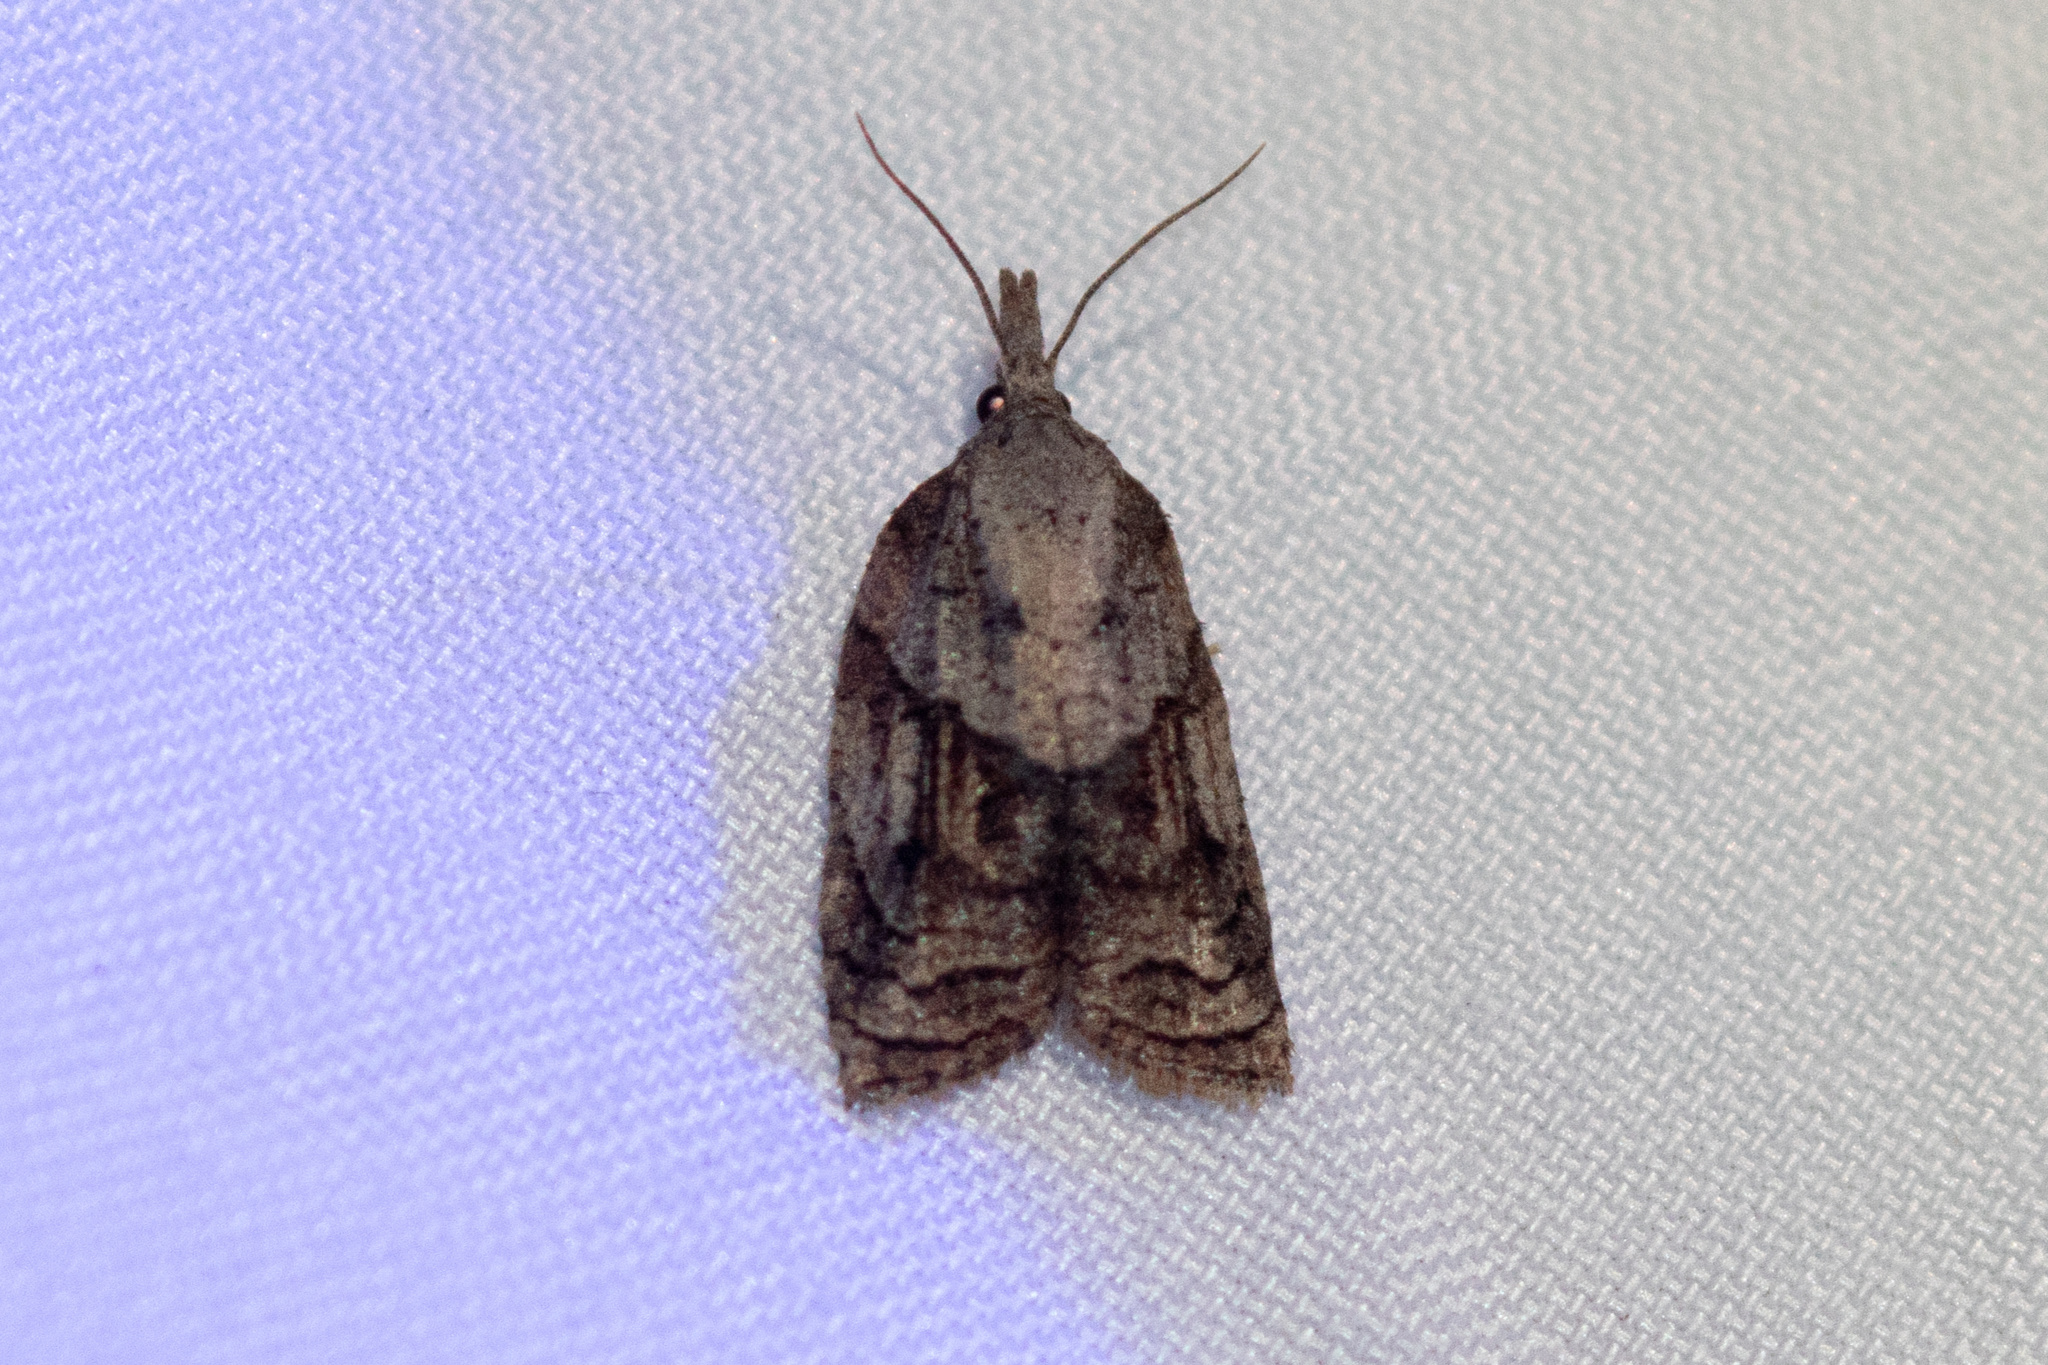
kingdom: Animalia
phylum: Arthropoda
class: Insecta
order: Lepidoptera
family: Tortricidae
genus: Platynota
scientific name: Platynota idaeusalis
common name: Tufted apple bud moth
